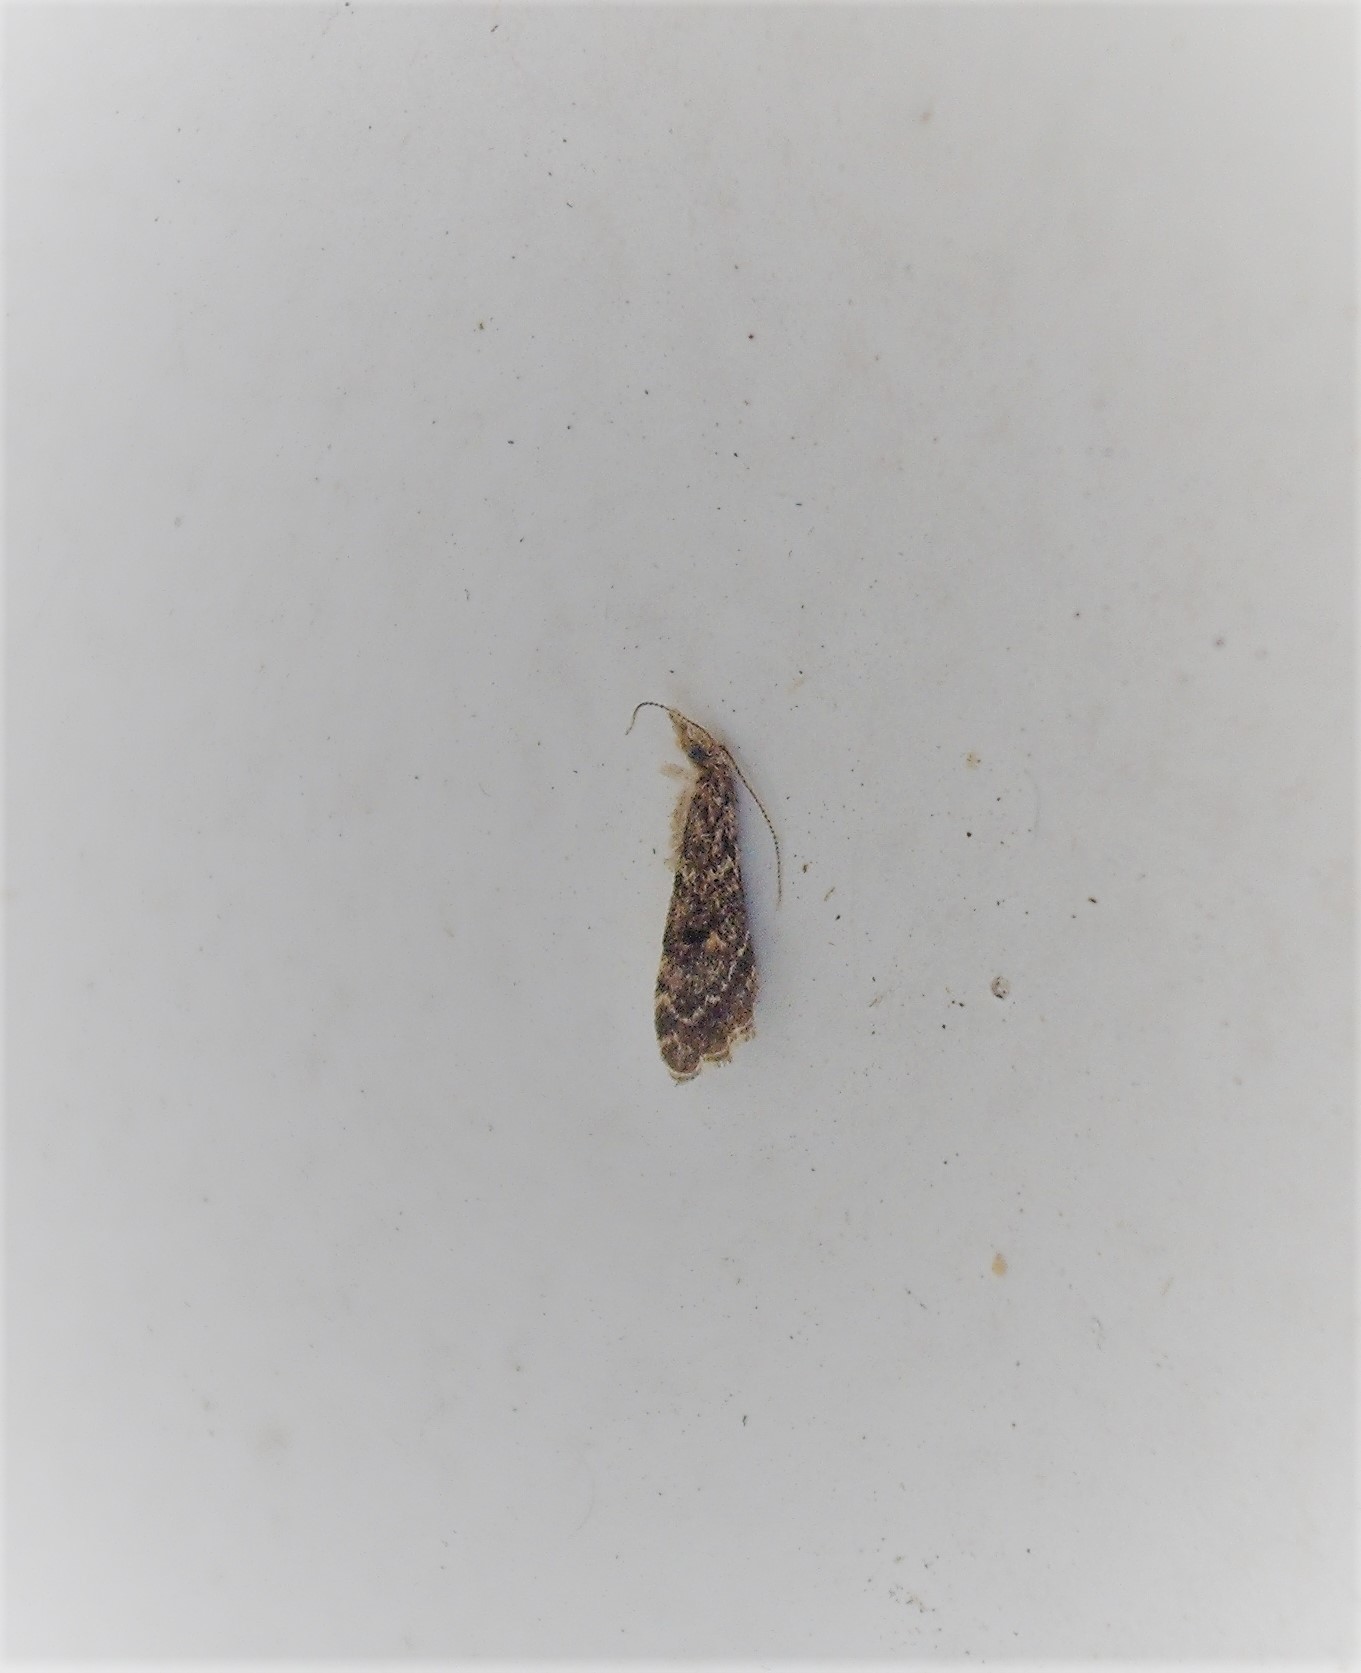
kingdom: Animalia
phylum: Arthropoda
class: Insecta
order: Lepidoptera
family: Crambidae
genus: Glaucocharis
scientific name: Glaucocharis elaina
